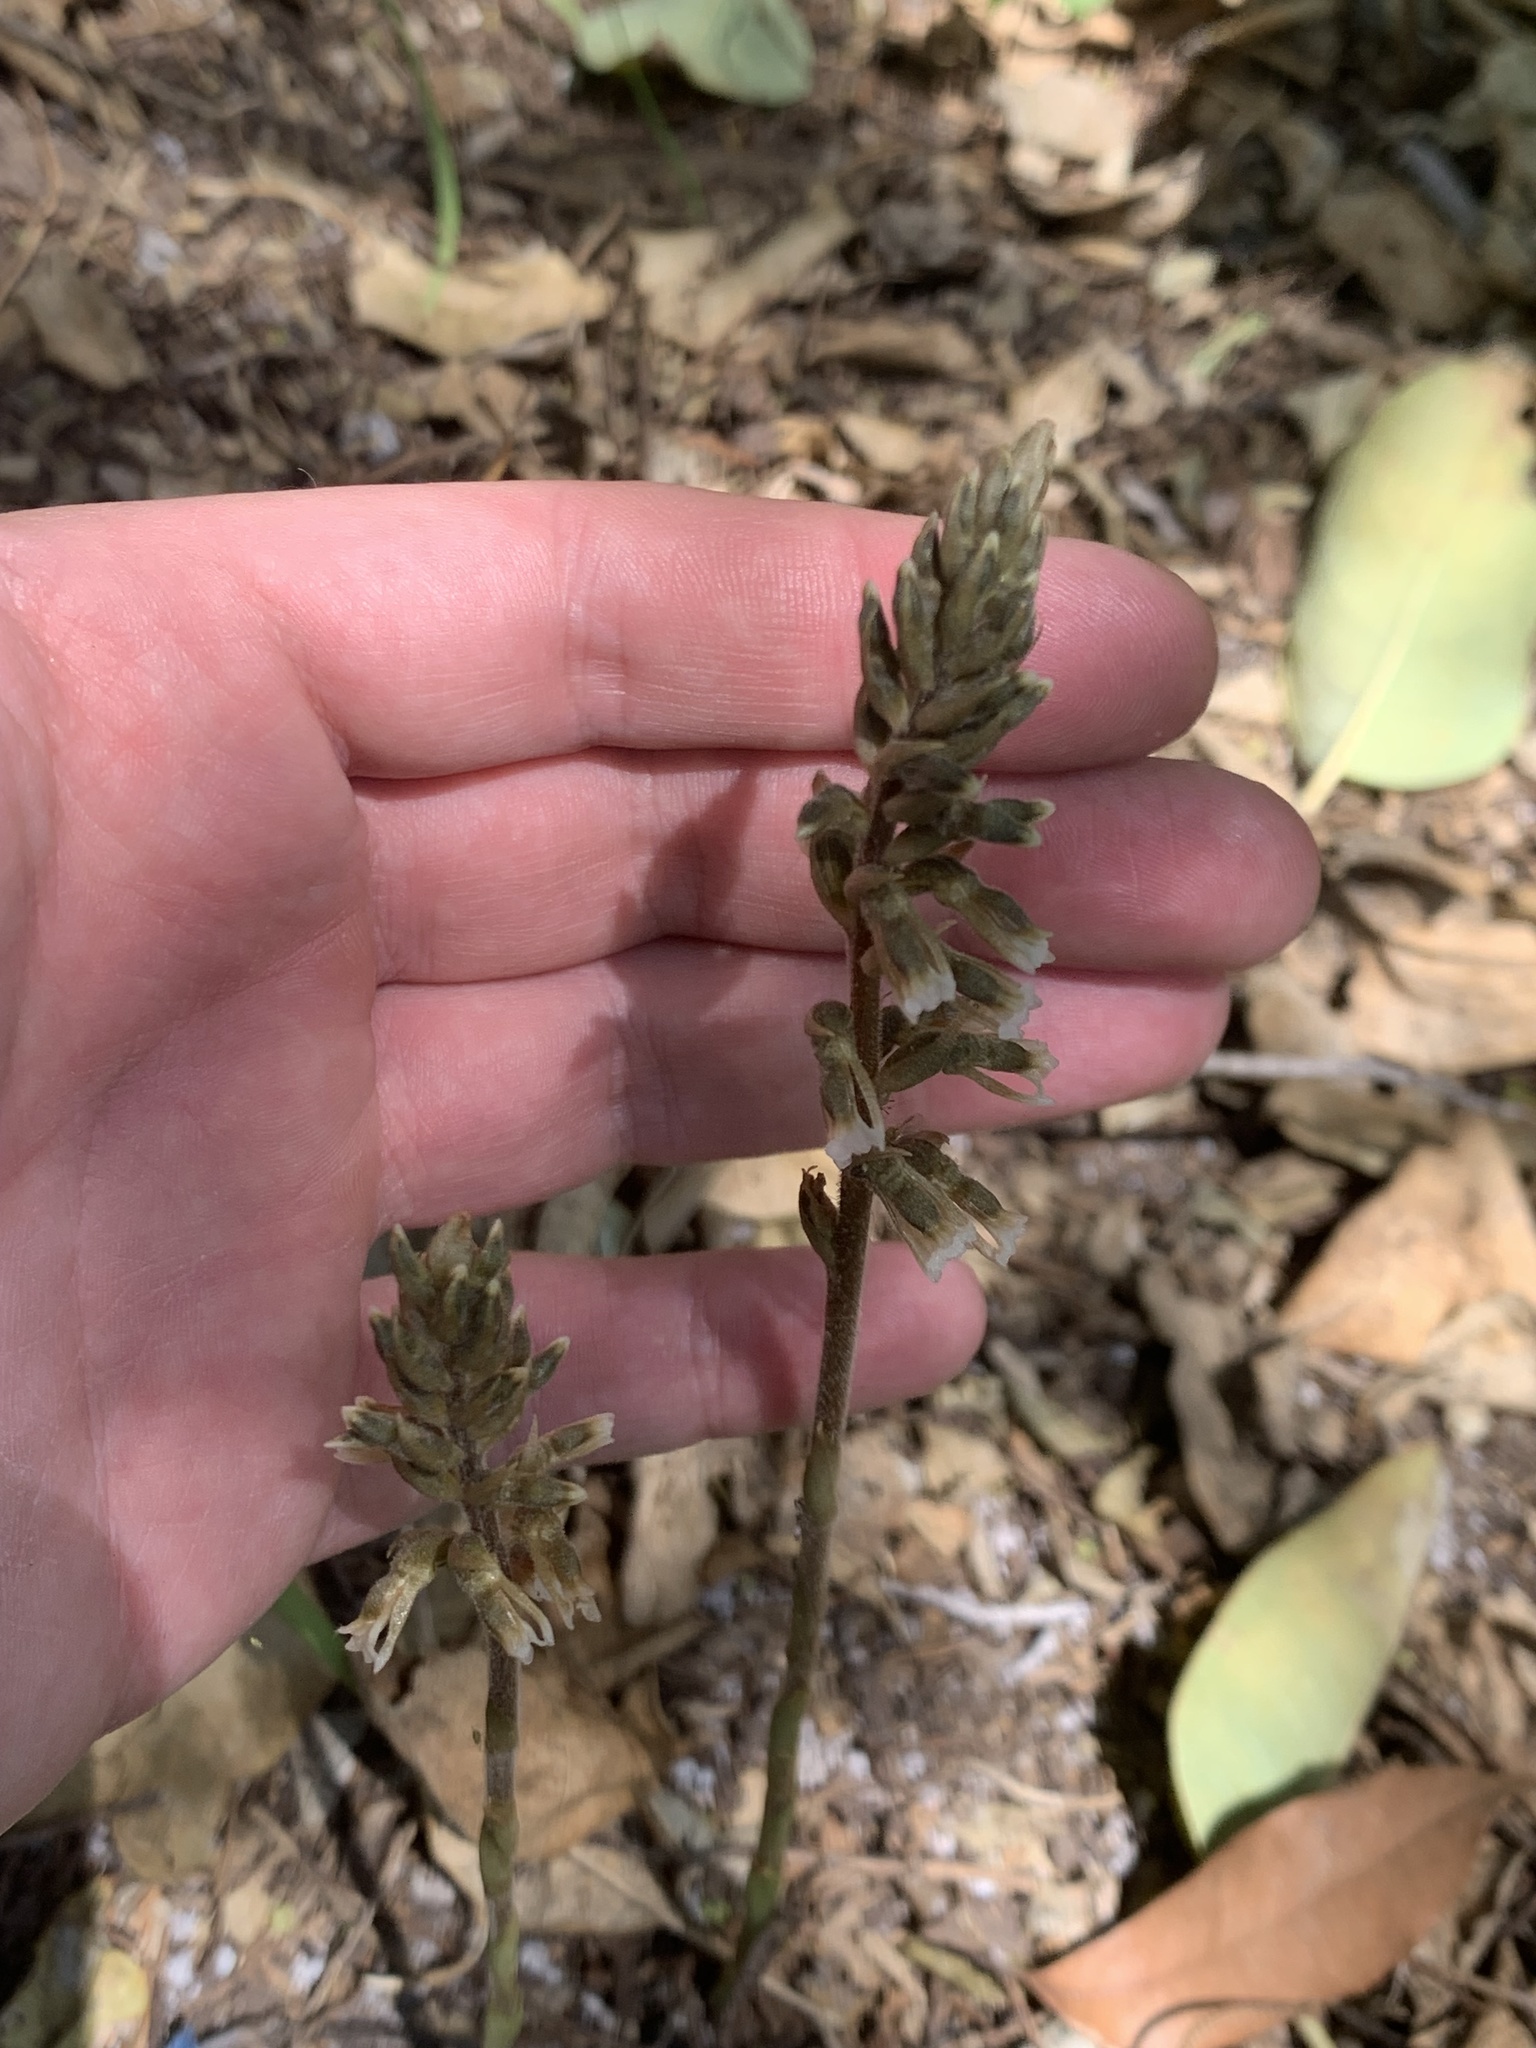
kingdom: Plantae
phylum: Tracheophyta
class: Liliopsida
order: Asparagales
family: Orchidaceae
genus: Cyclopogon
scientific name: Cyclopogon elatus
